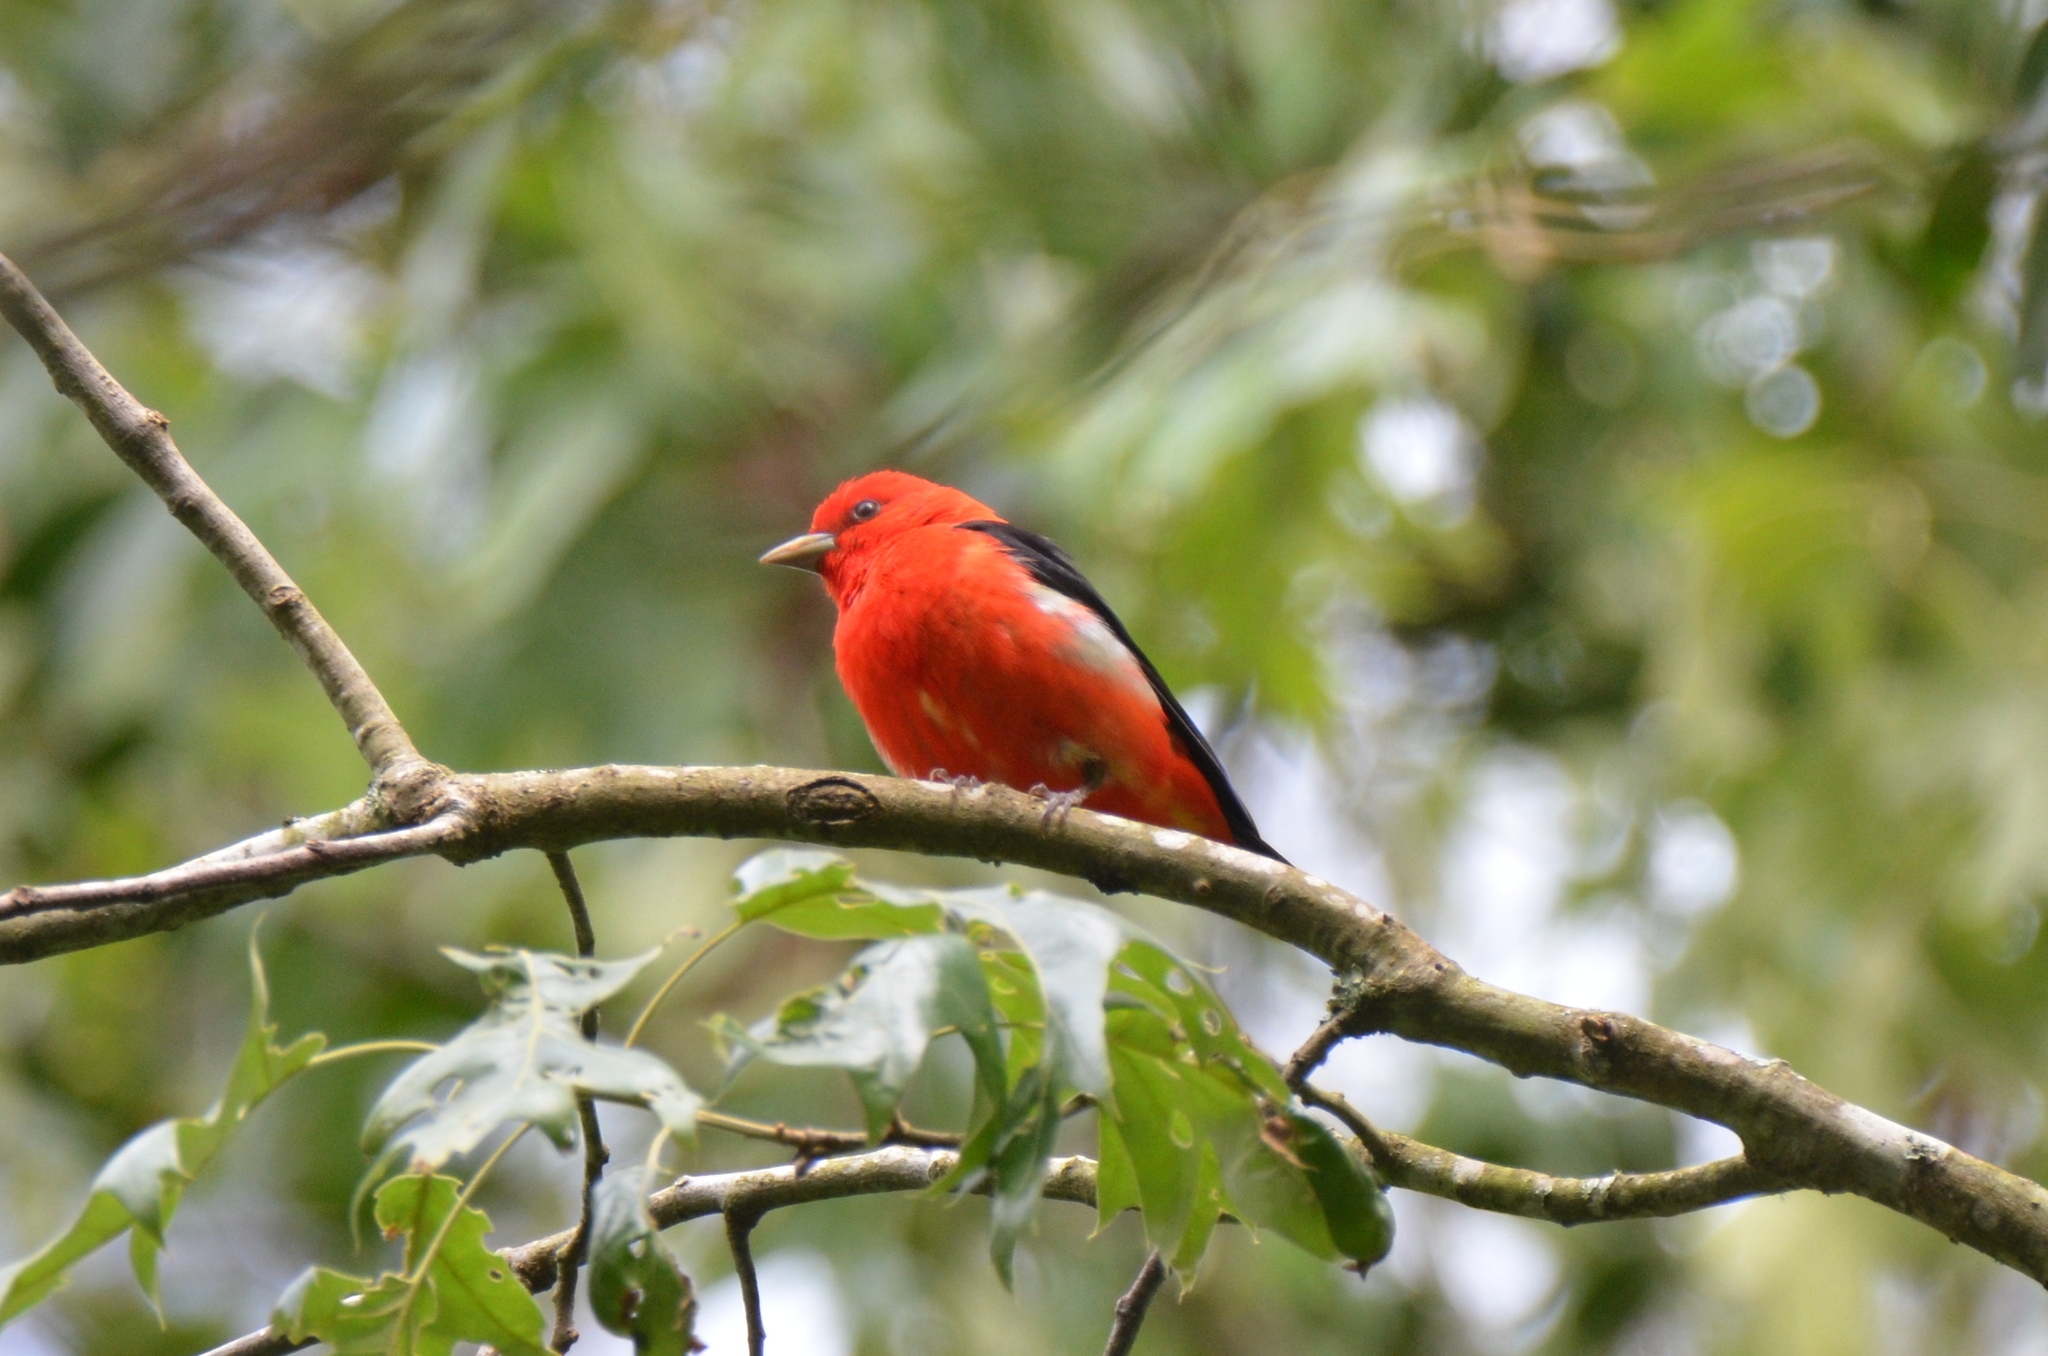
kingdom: Animalia
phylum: Chordata
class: Aves
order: Passeriformes
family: Cardinalidae
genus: Piranga
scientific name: Piranga olivacea
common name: Scarlet tanager
